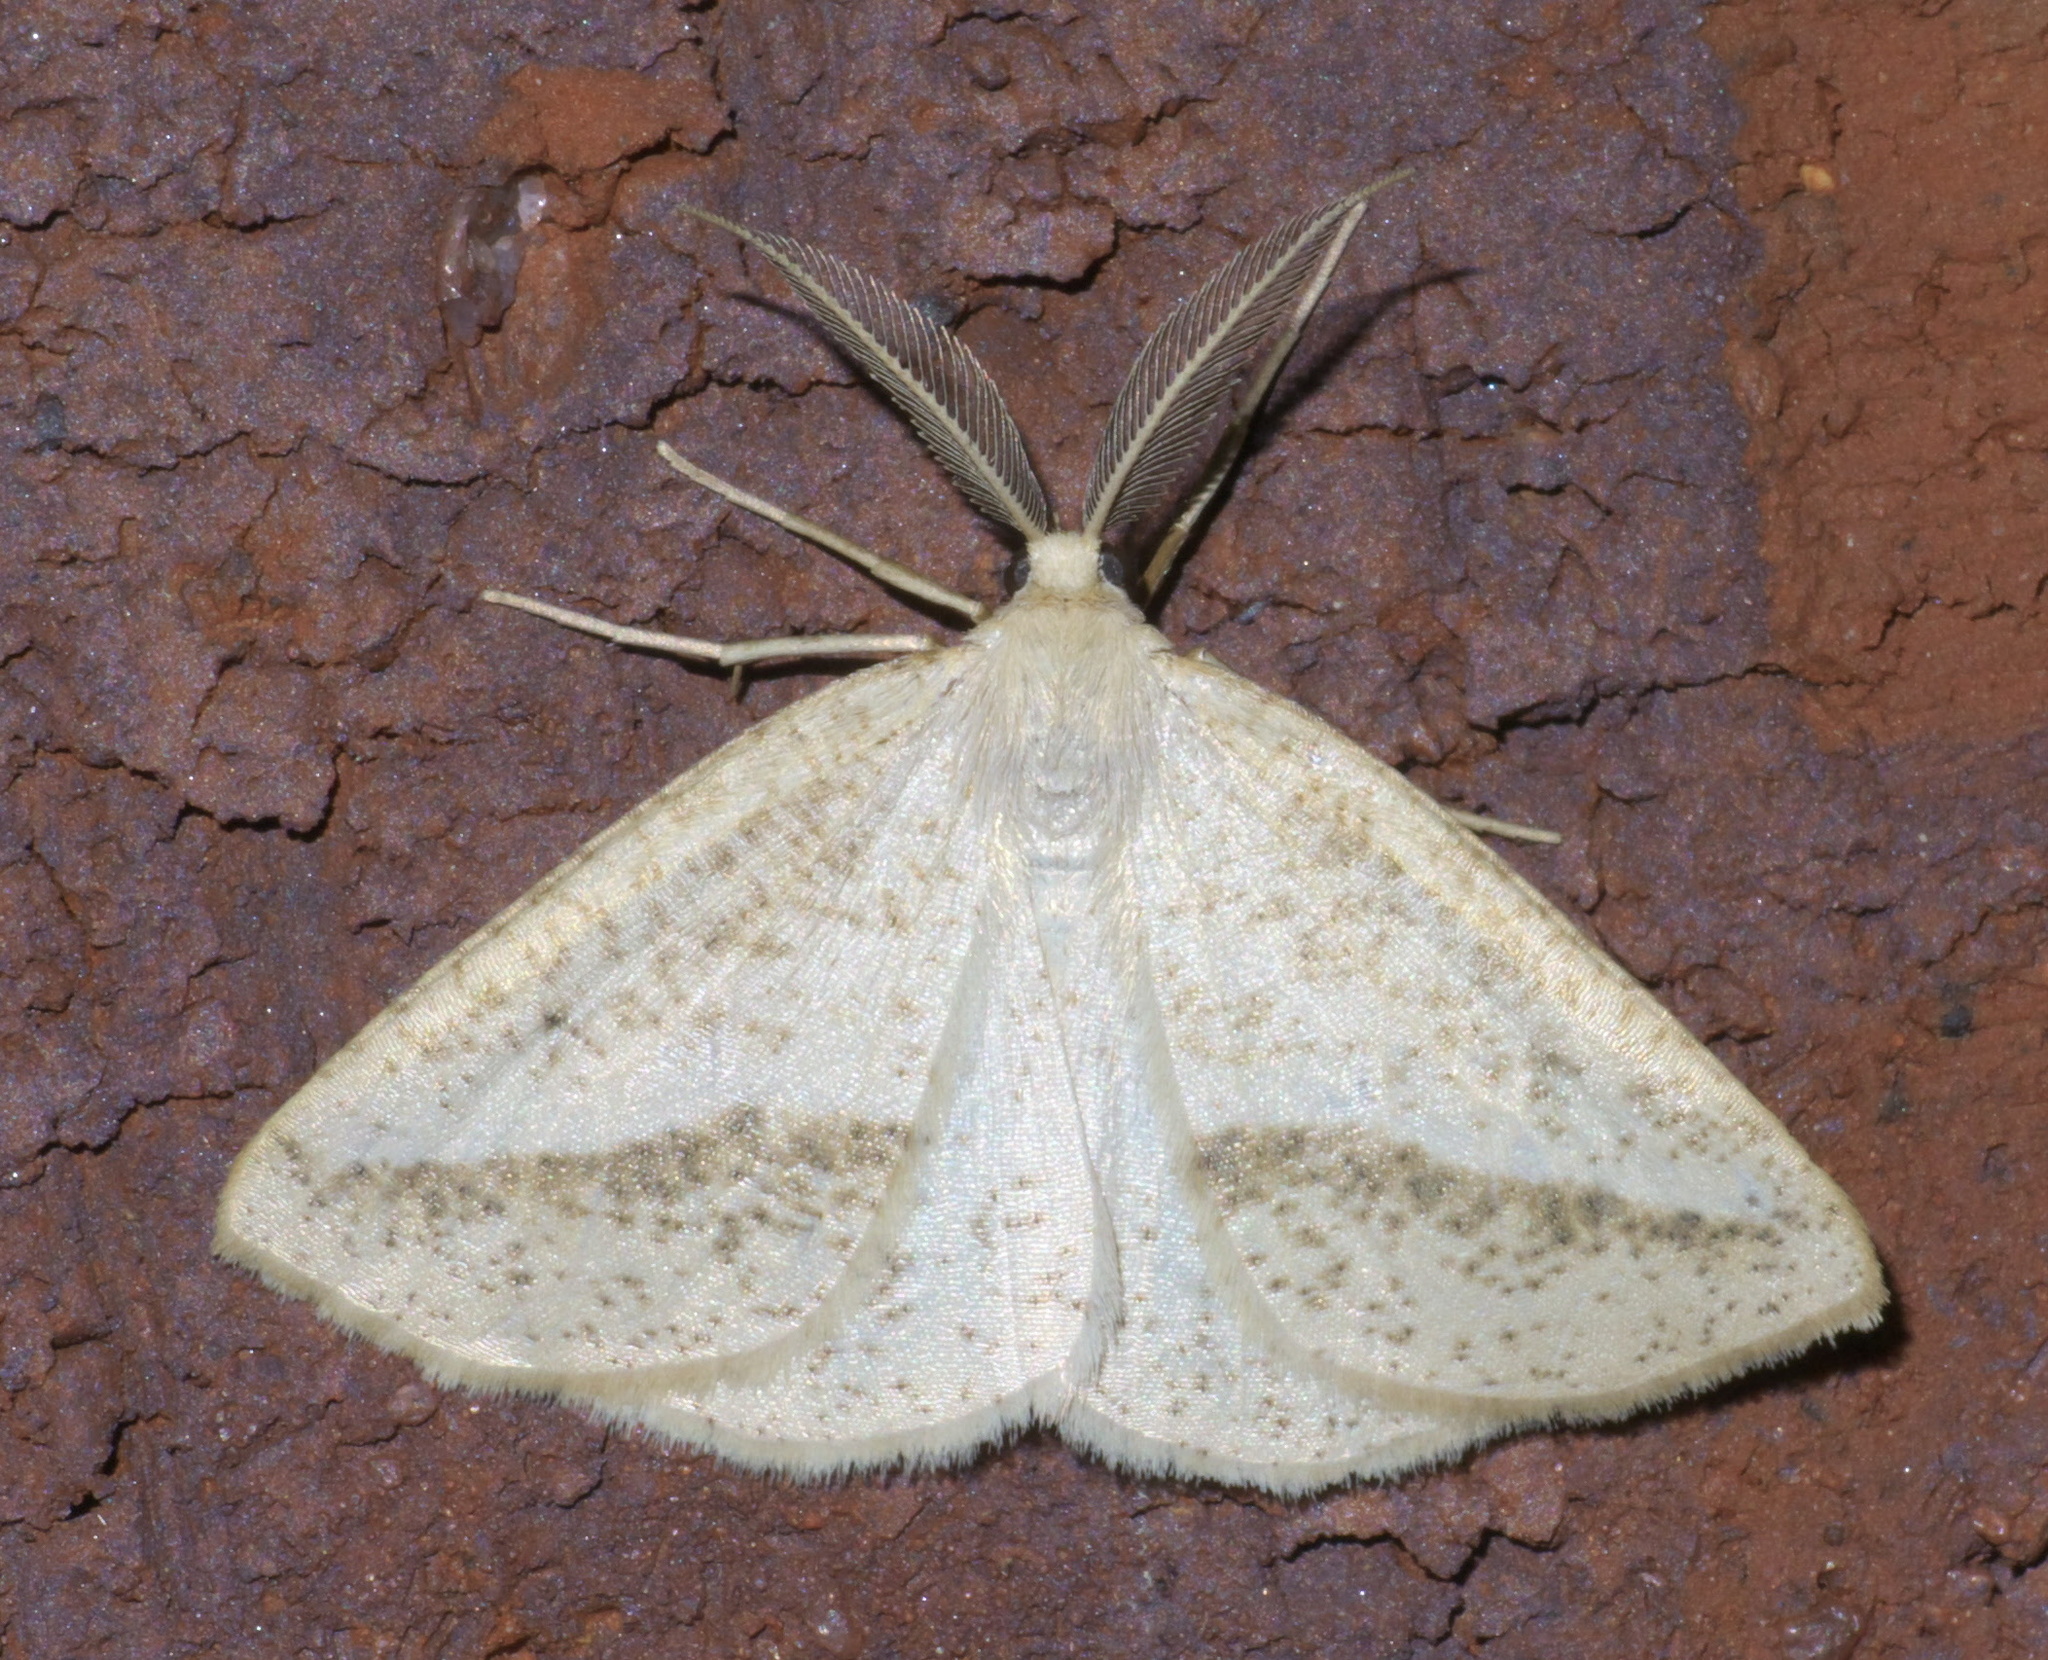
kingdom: Animalia
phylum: Arthropoda
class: Insecta
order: Lepidoptera
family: Geometridae
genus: Lychnosea
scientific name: Lychnosea intermicata
